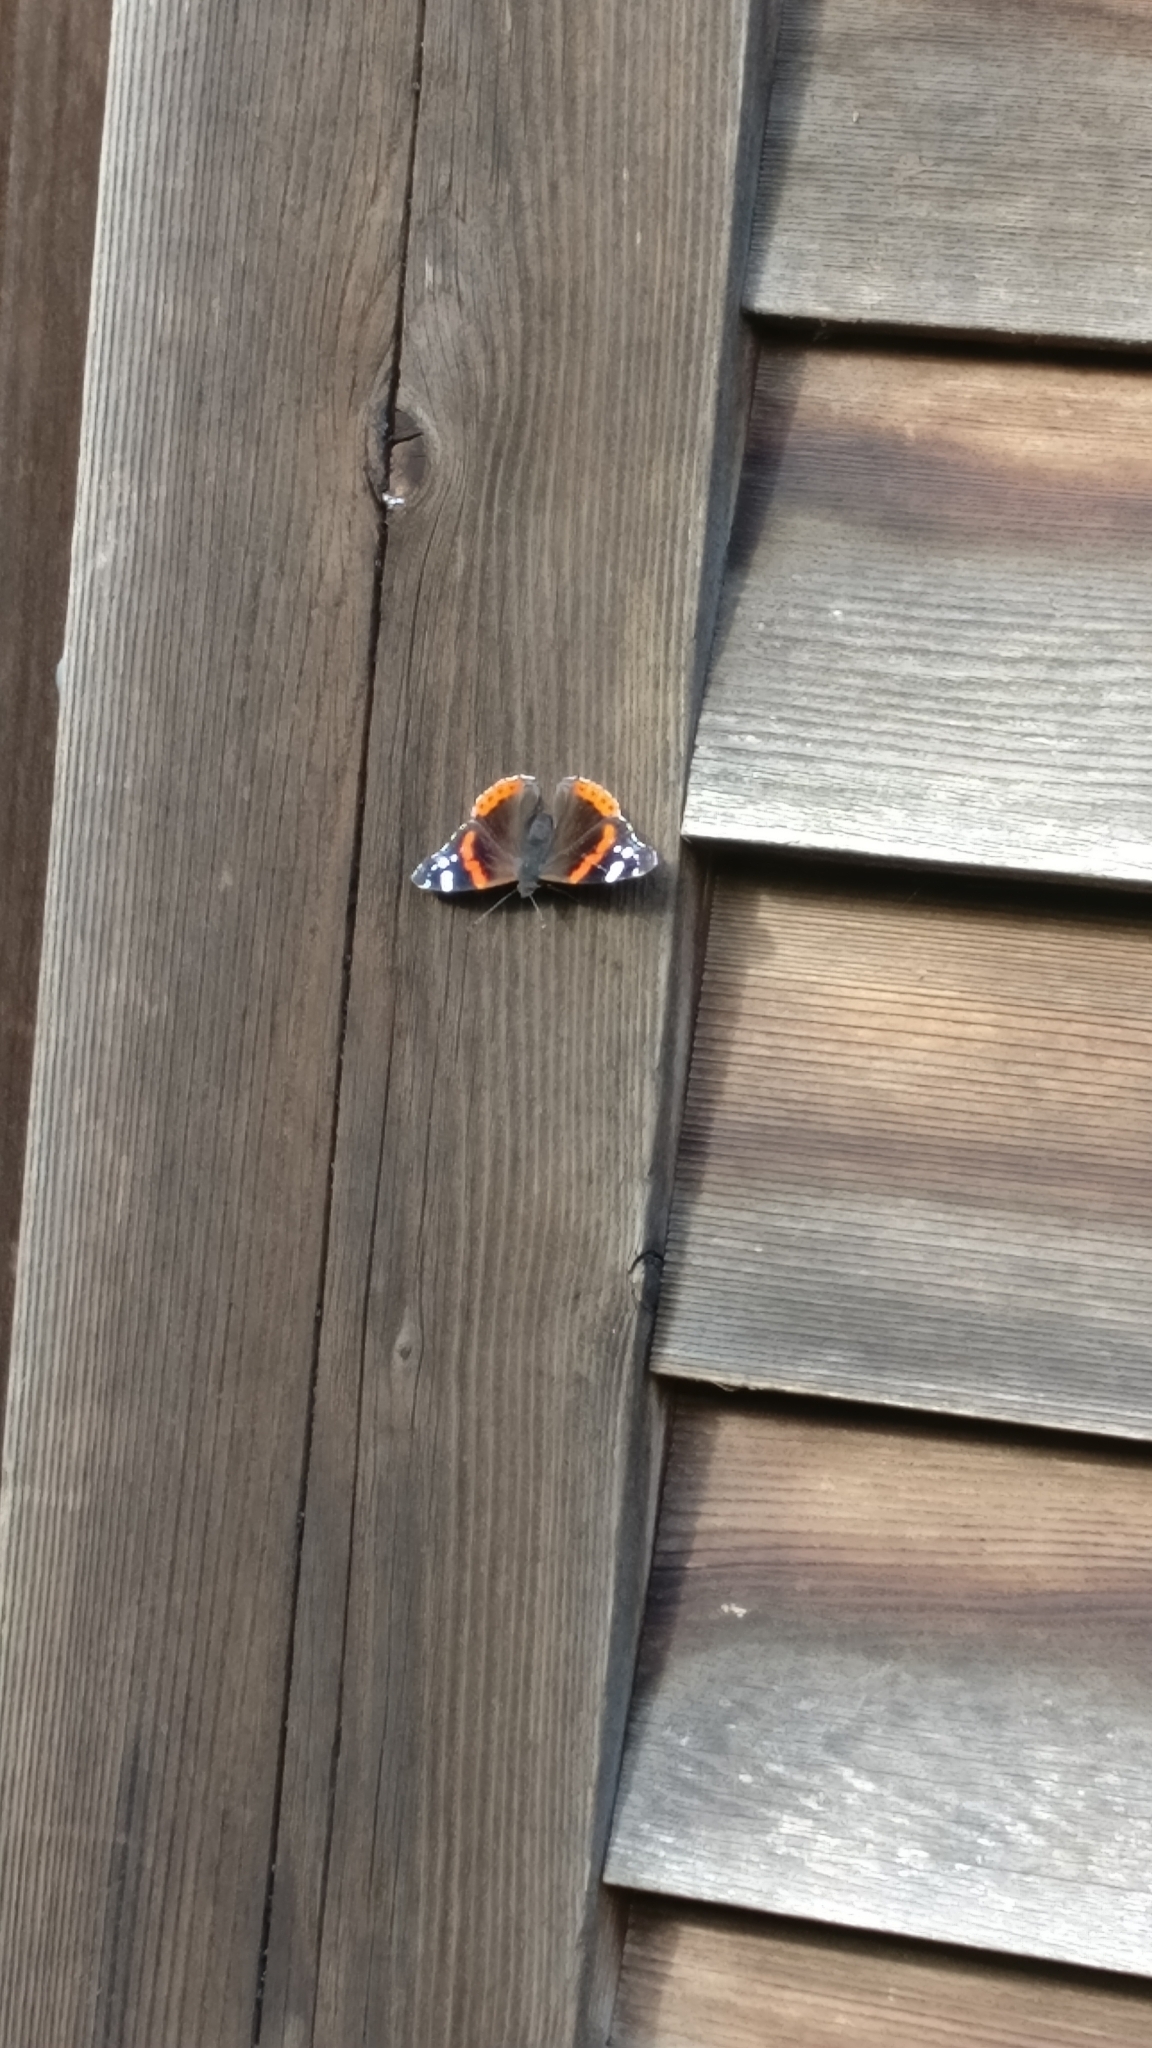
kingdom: Animalia
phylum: Arthropoda
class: Insecta
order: Lepidoptera
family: Nymphalidae
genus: Vanessa
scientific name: Vanessa atalanta
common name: Red admiral
